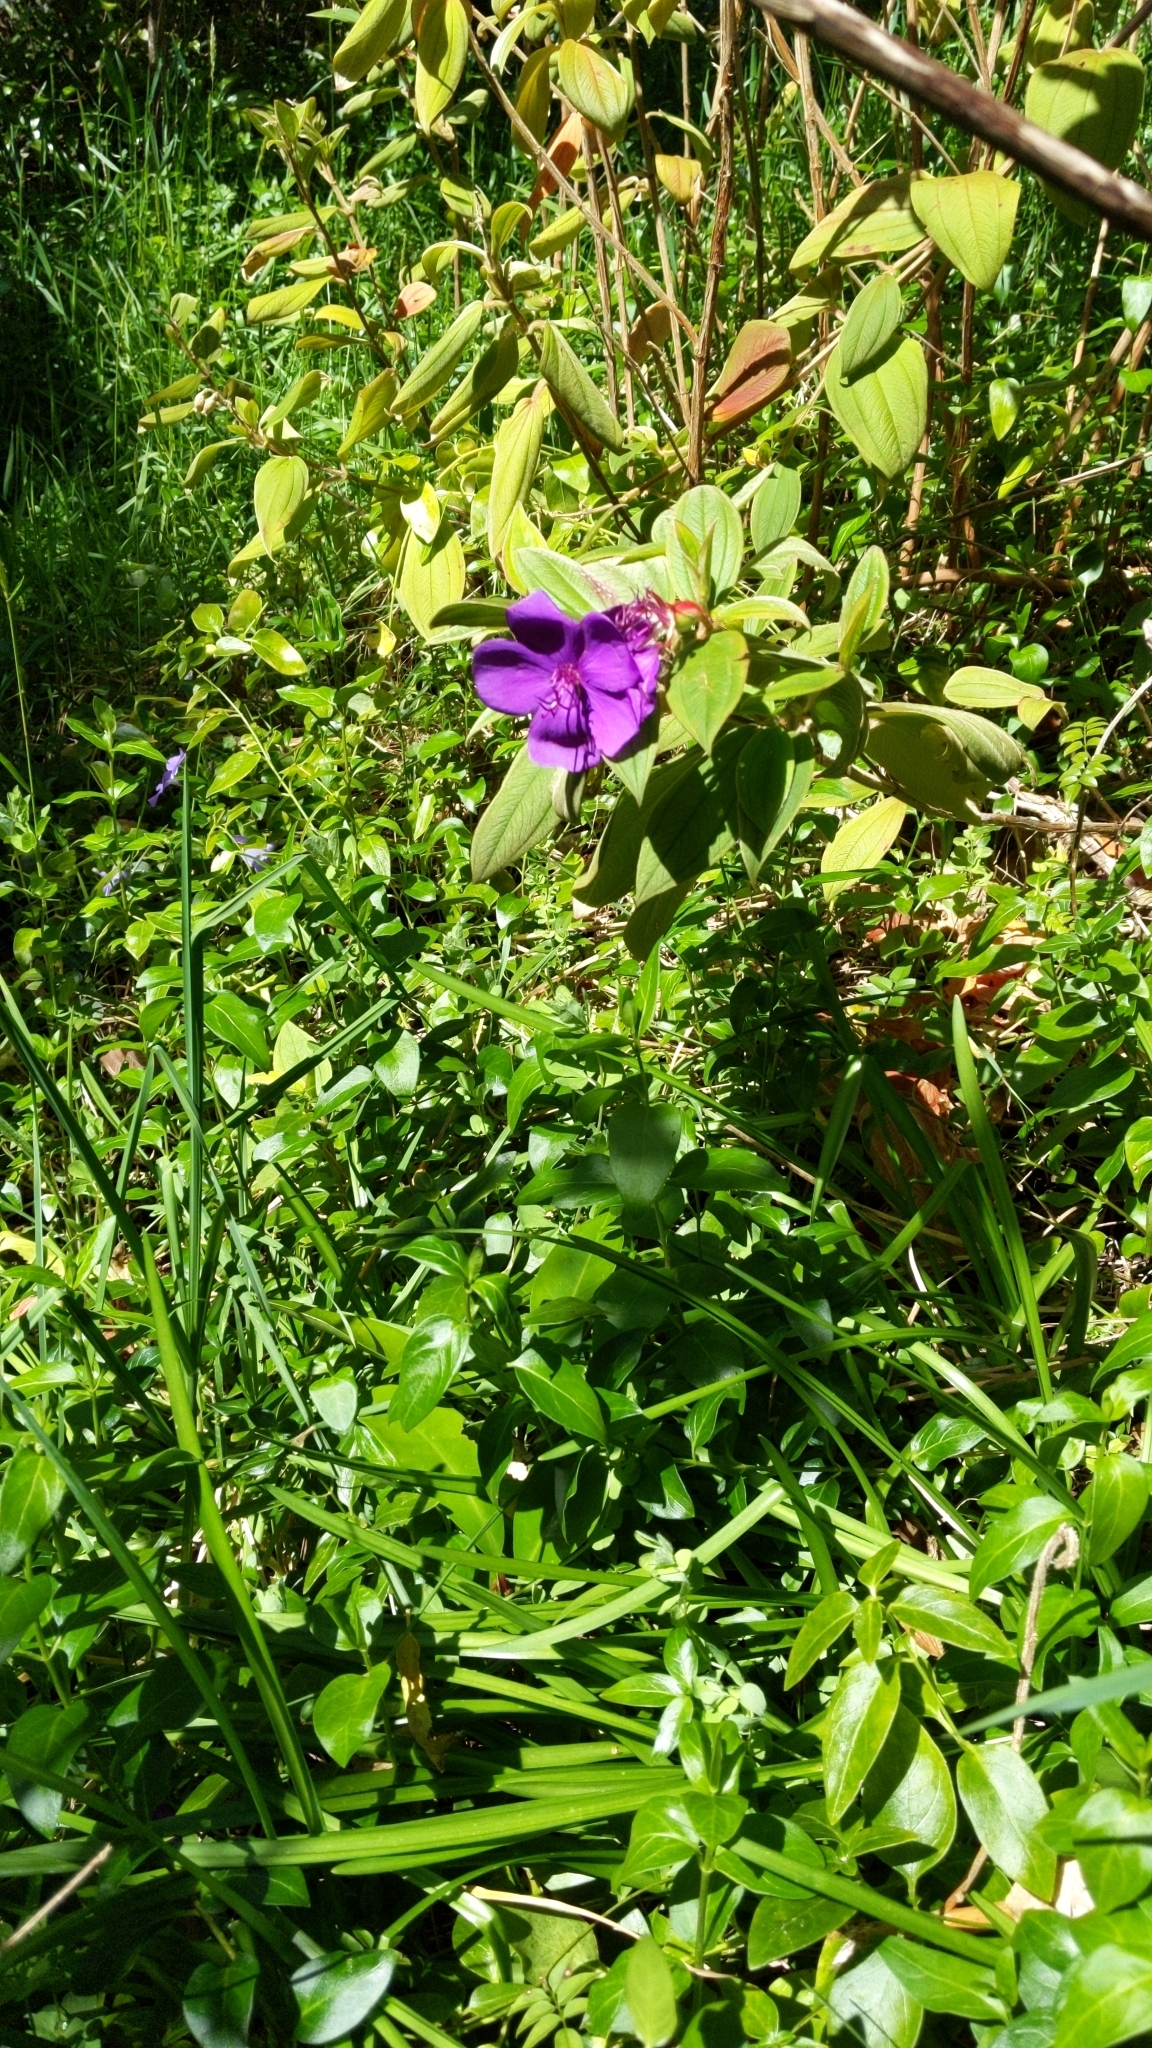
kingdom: Plantae
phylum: Tracheophyta
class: Magnoliopsida
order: Myrtales
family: Melastomataceae
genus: Pleroma
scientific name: Pleroma urvilleanum
